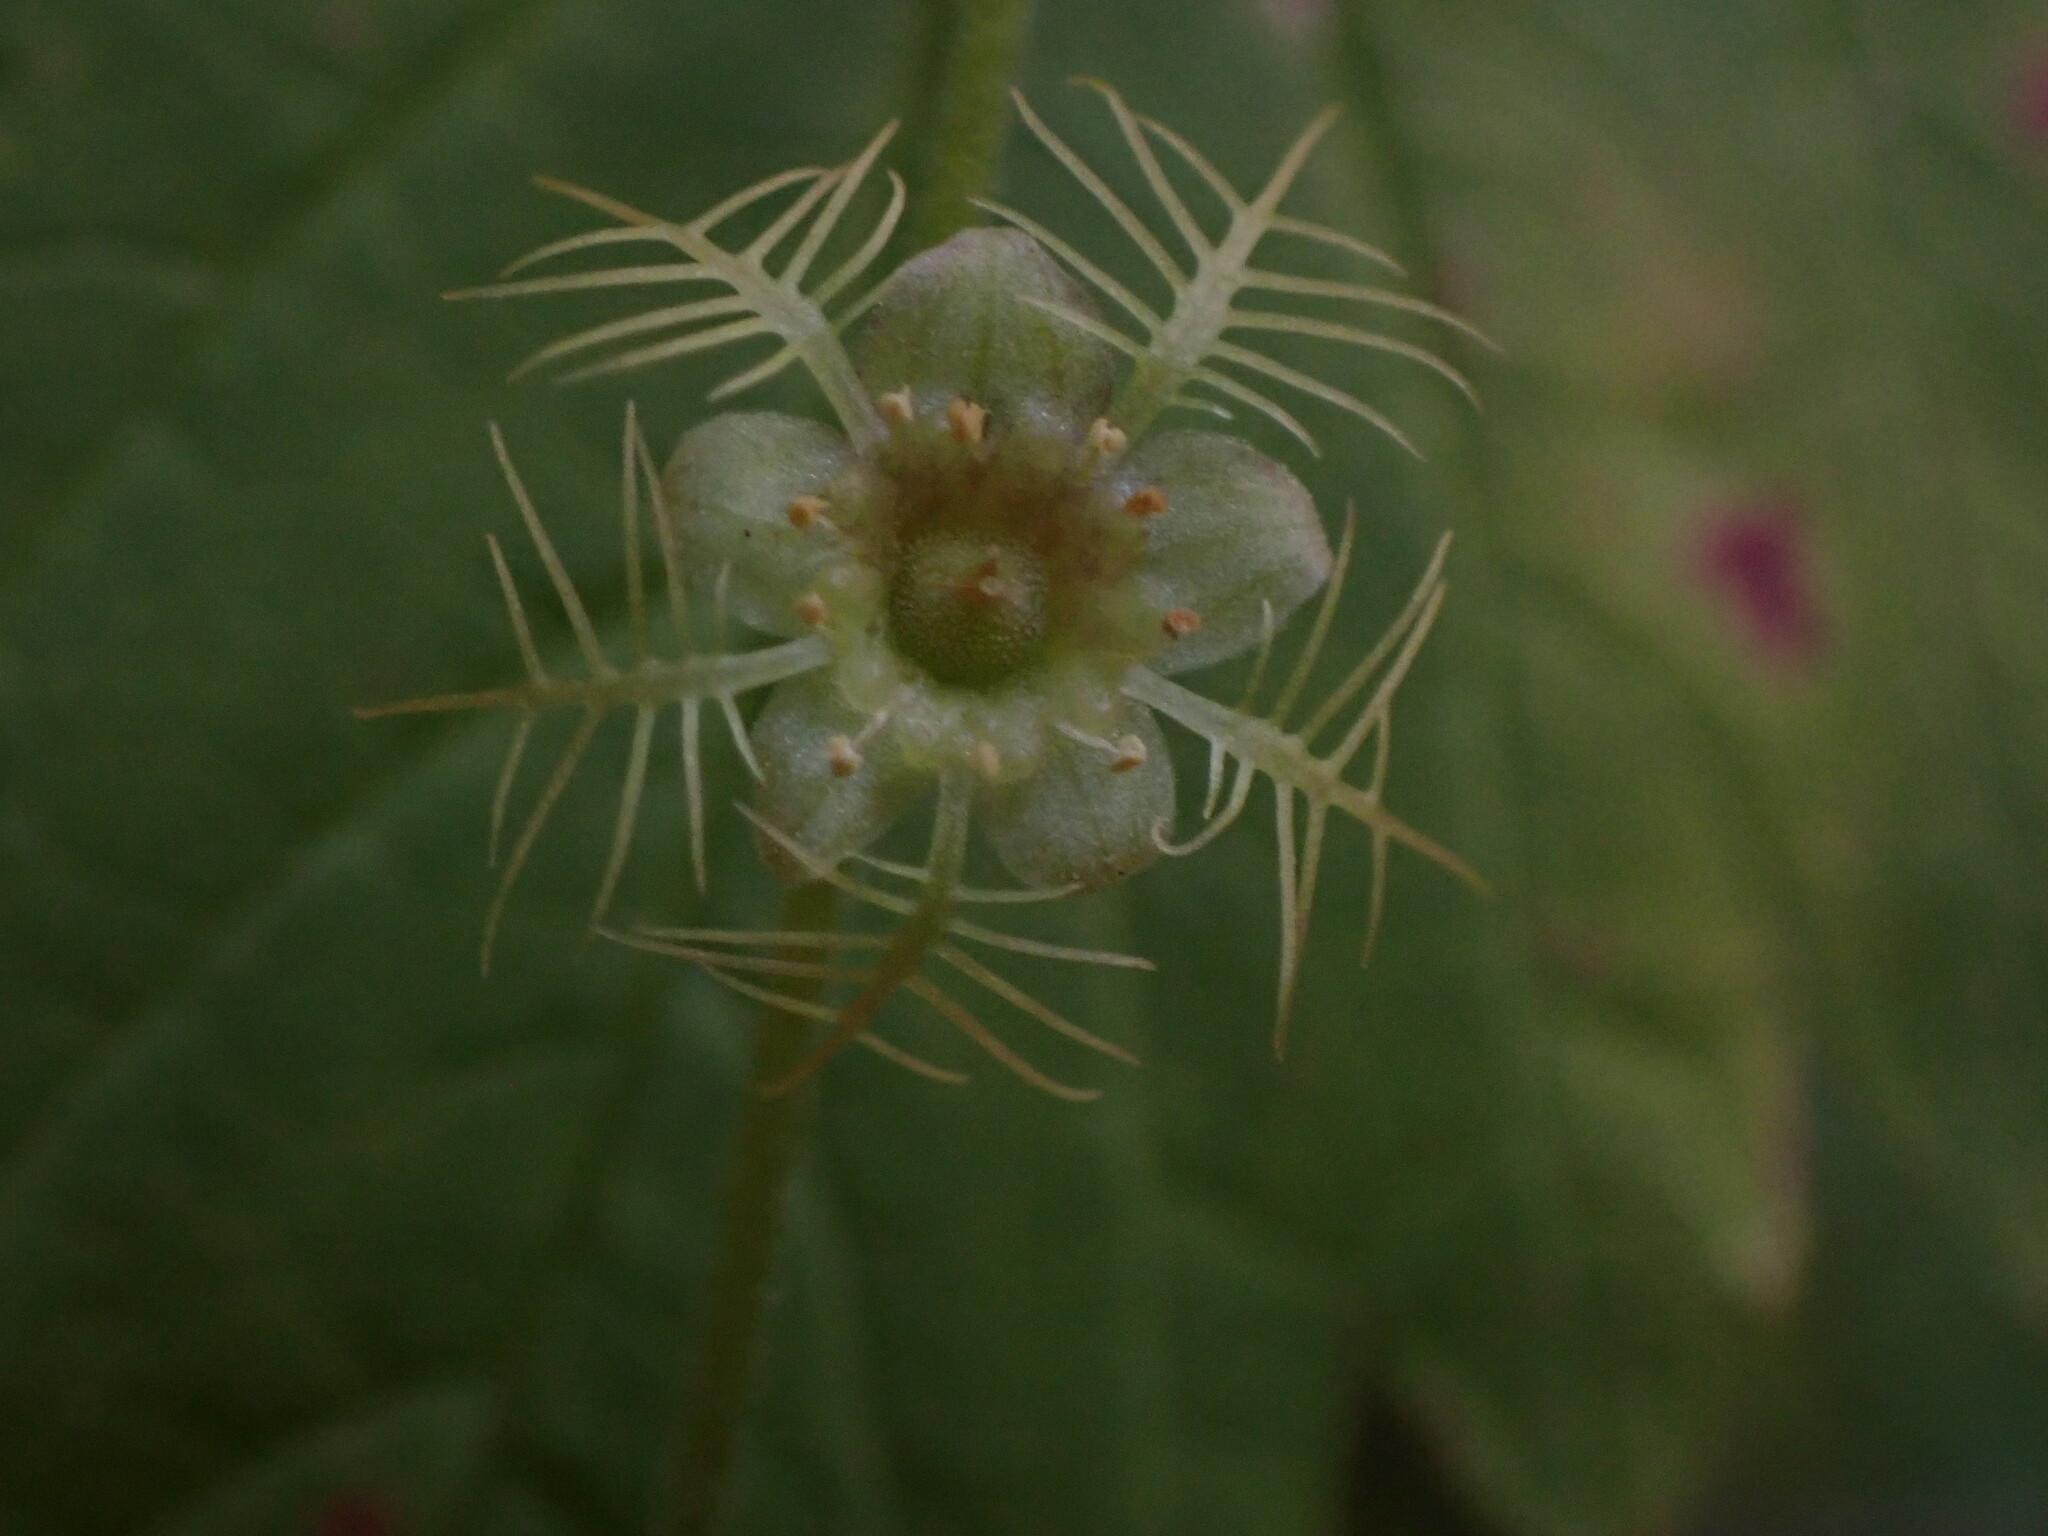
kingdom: Plantae
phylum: Tracheophyta
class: Magnoliopsida
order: Saxifragales
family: Saxifragaceae
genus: Mitella
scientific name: Mitella nuda
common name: Bare-stemmed bishop's-cap
